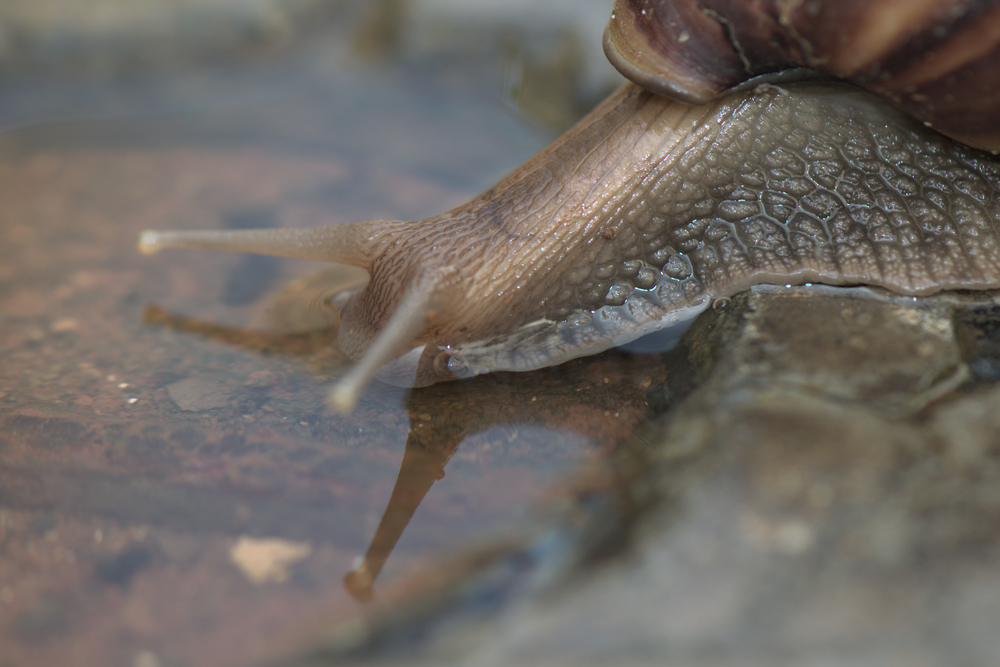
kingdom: Animalia
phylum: Mollusca
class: Gastropoda
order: Stylommatophora
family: Achatinidae
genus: Lissachatina
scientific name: Lissachatina fulica
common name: Giant african snail
